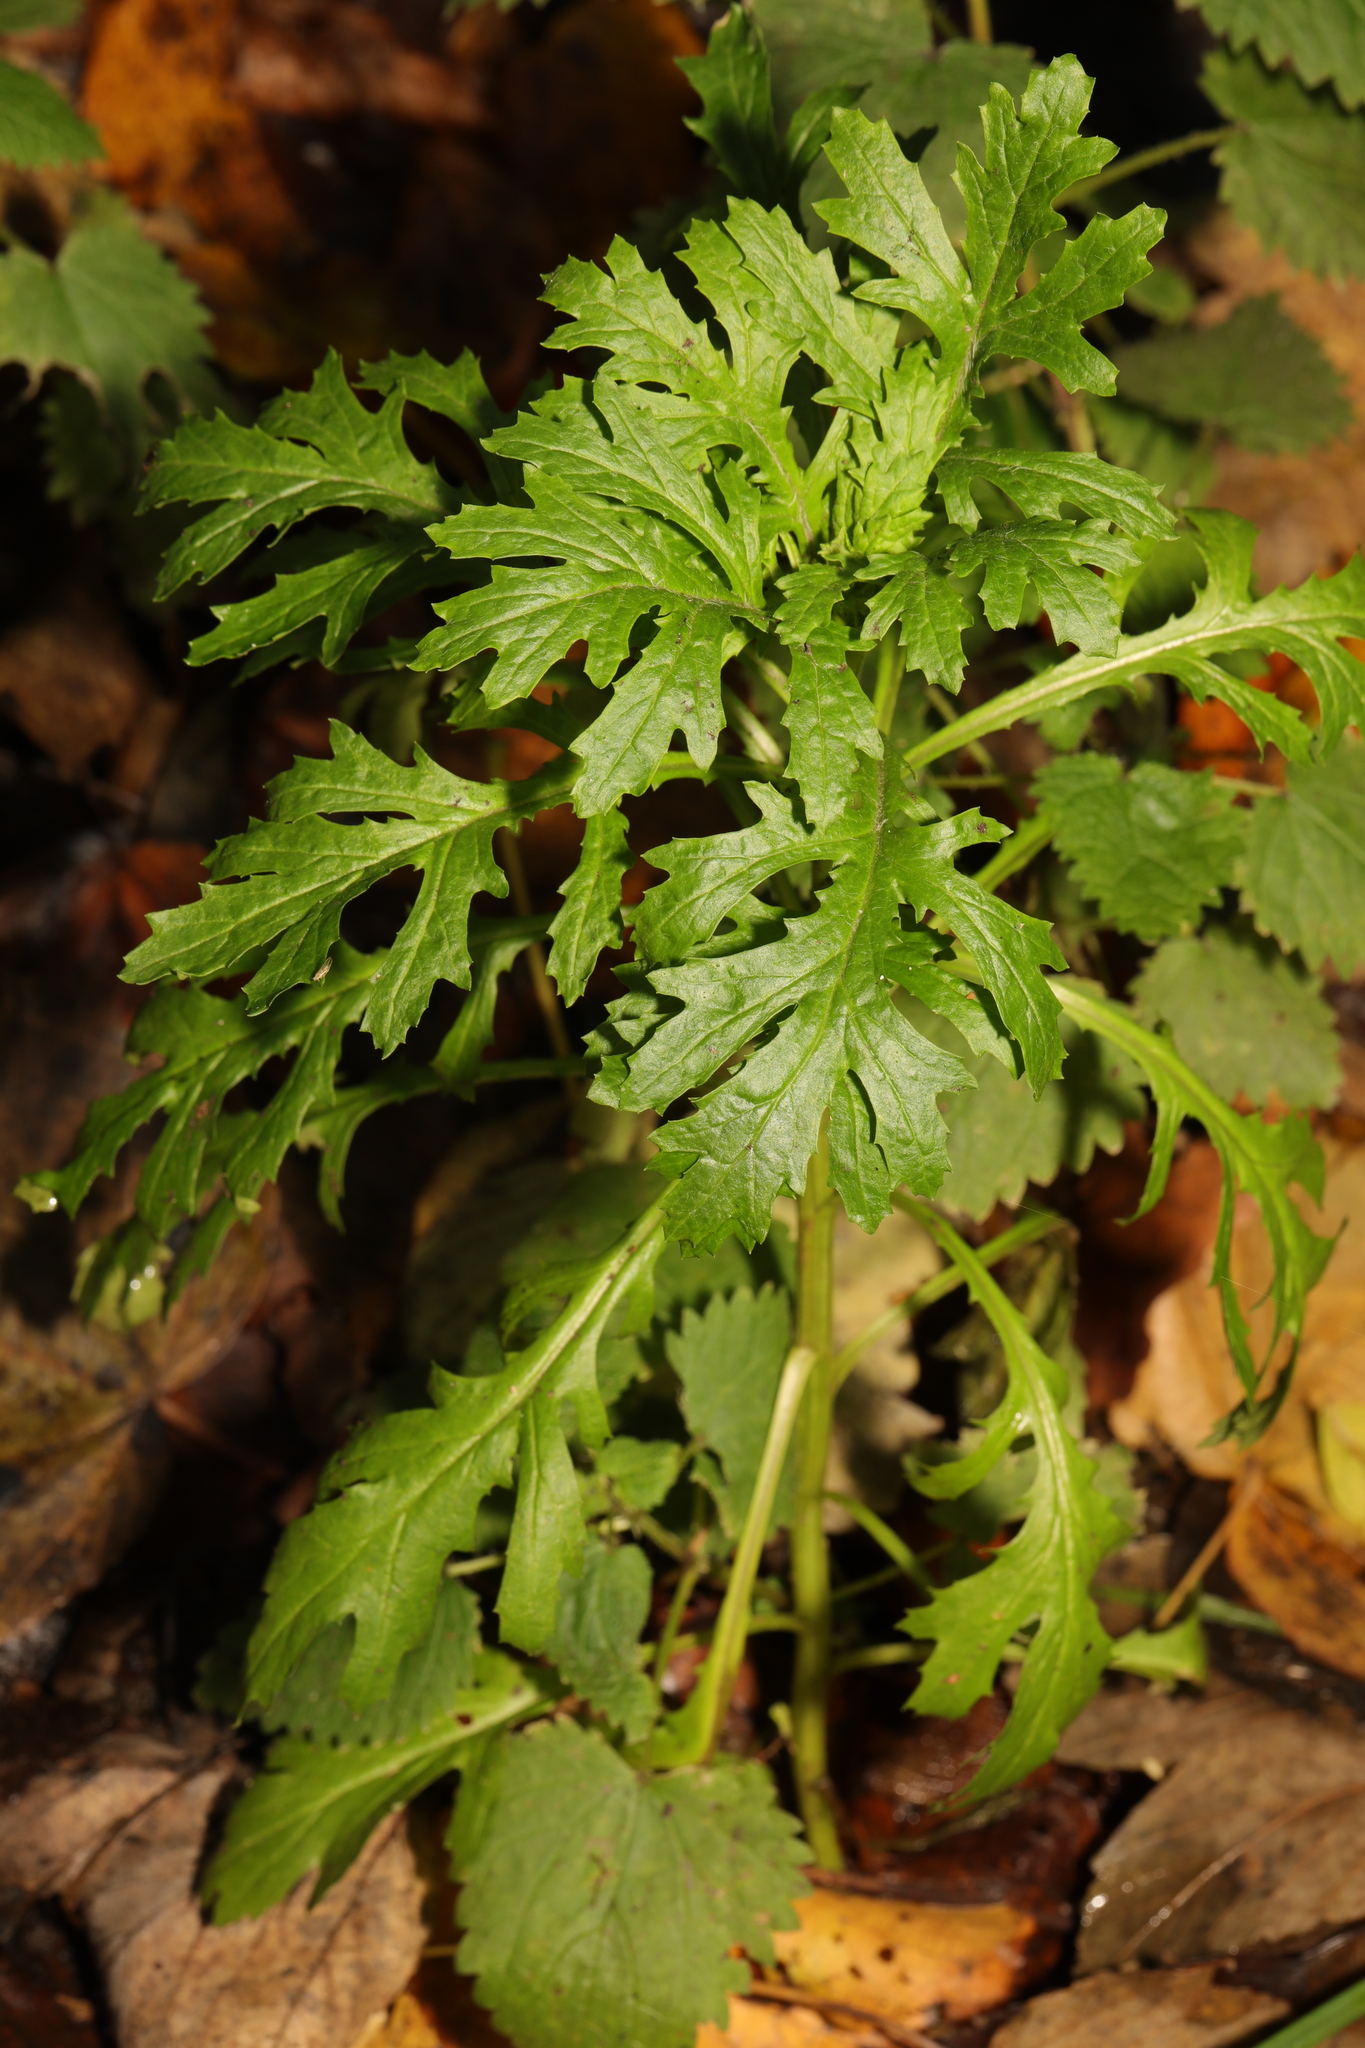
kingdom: Plantae
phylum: Tracheophyta
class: Magnoliopsida
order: Asterales
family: Asteraceae
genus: Senecio
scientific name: Senecio squalidus
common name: Oxford ragwort
